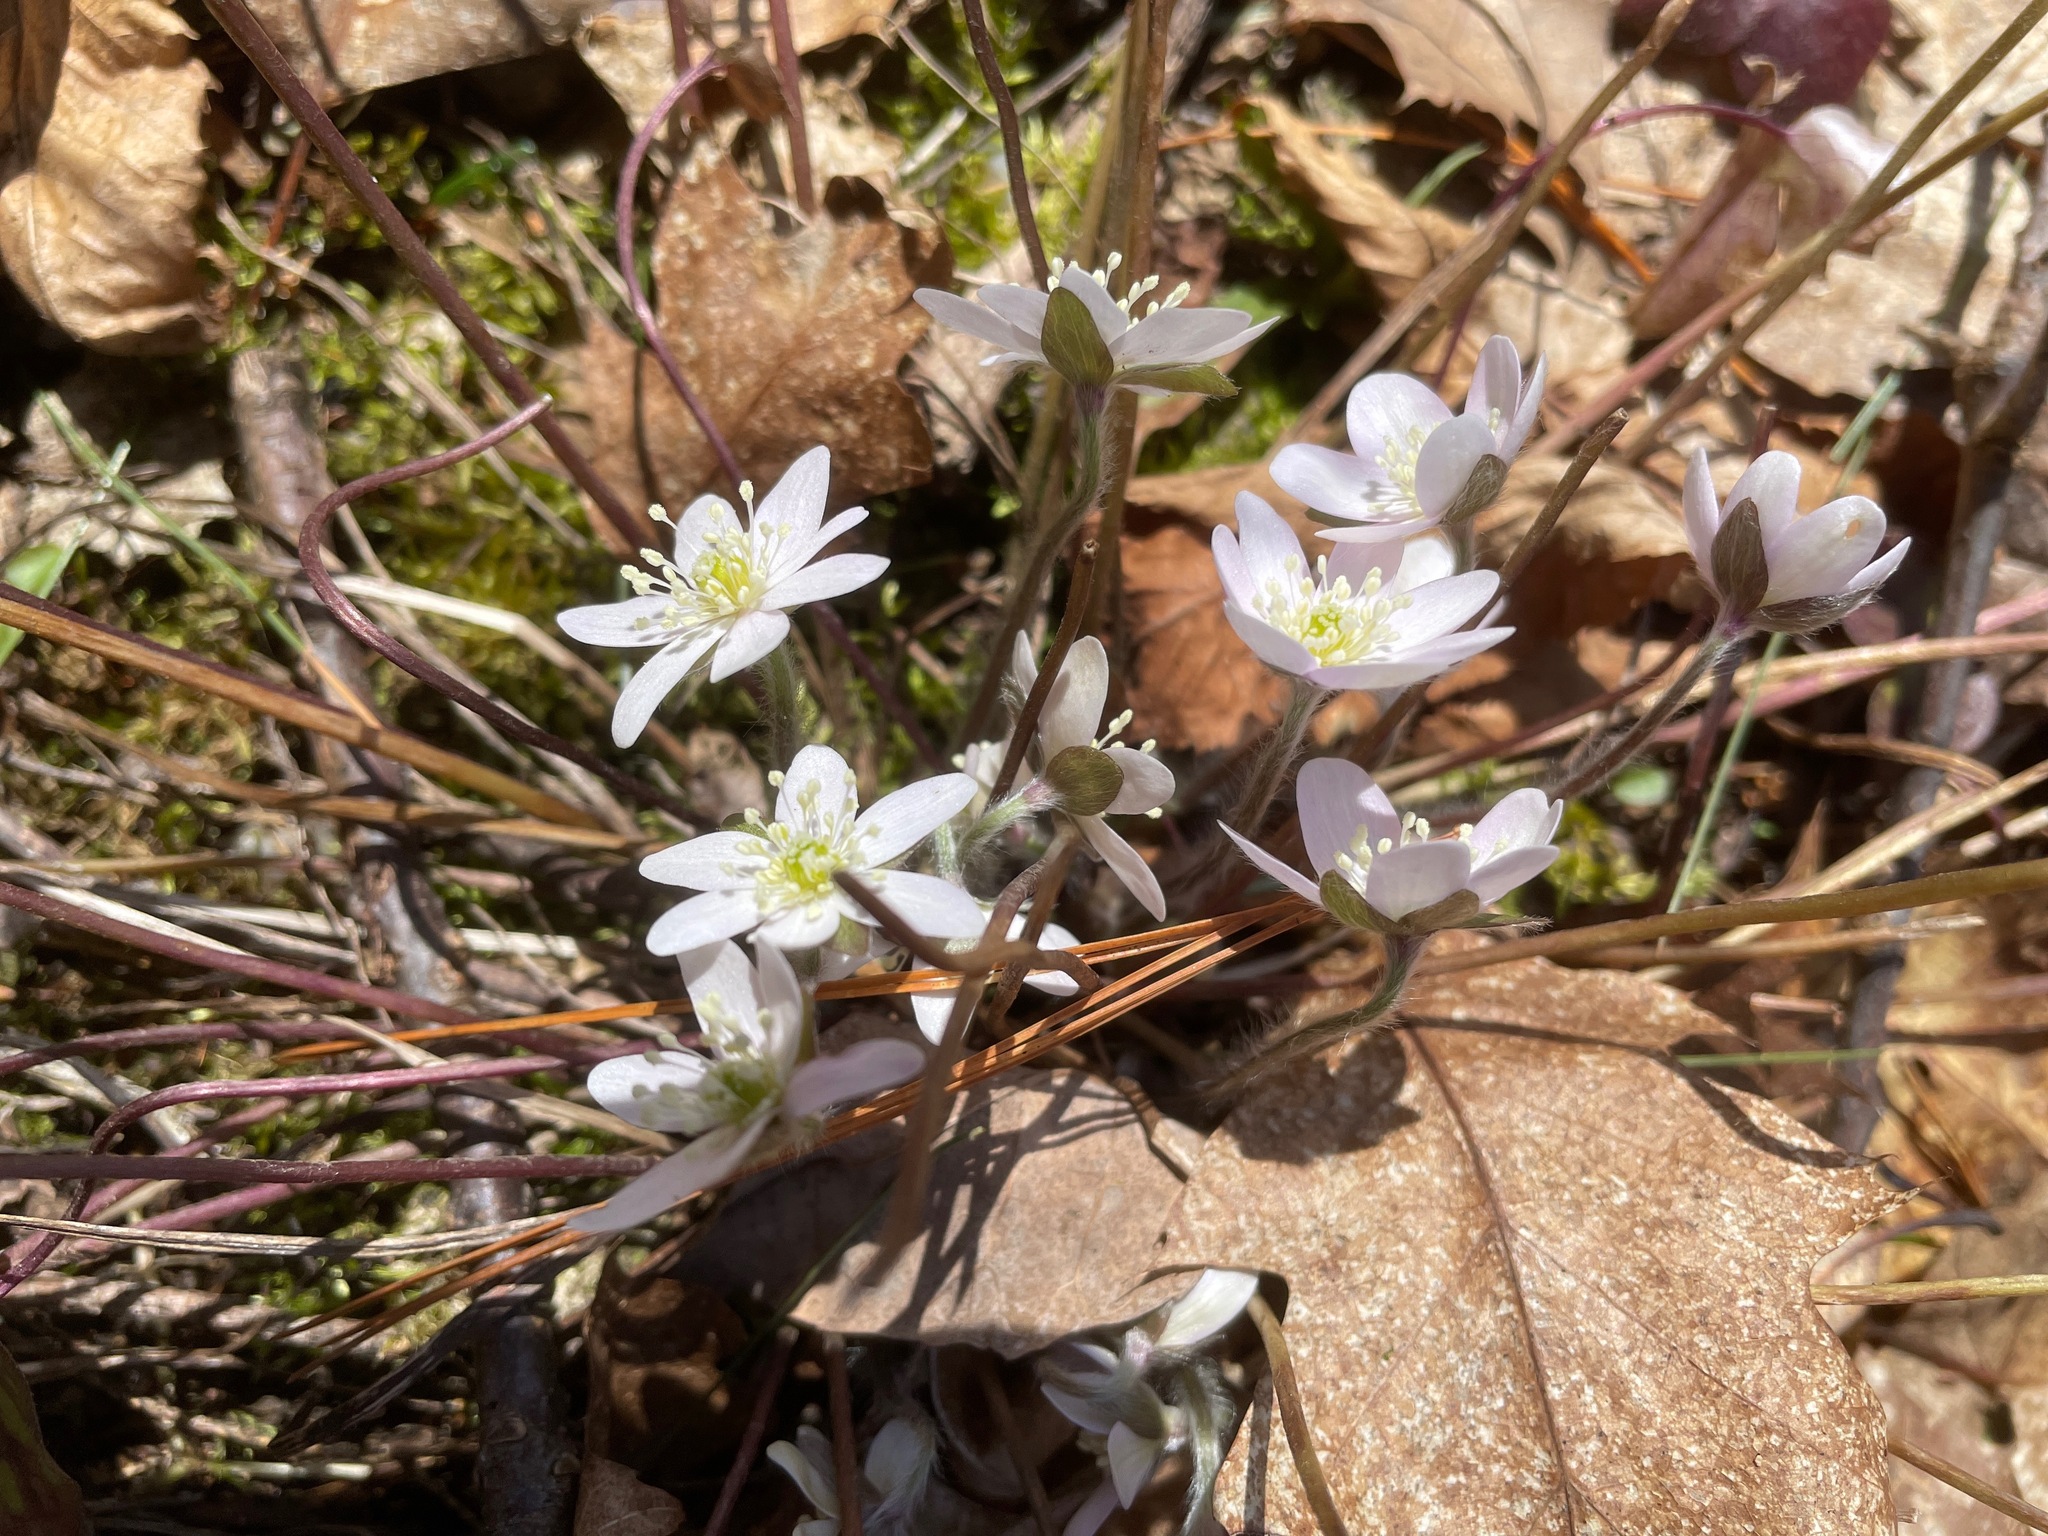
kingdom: Plantae
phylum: Tracheophyta
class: Magnoliopsida
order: Ranunculales
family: Ranunculaceae
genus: Hepatica
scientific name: Hepatica acutiloba
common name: Sharp-lobed hepatica
